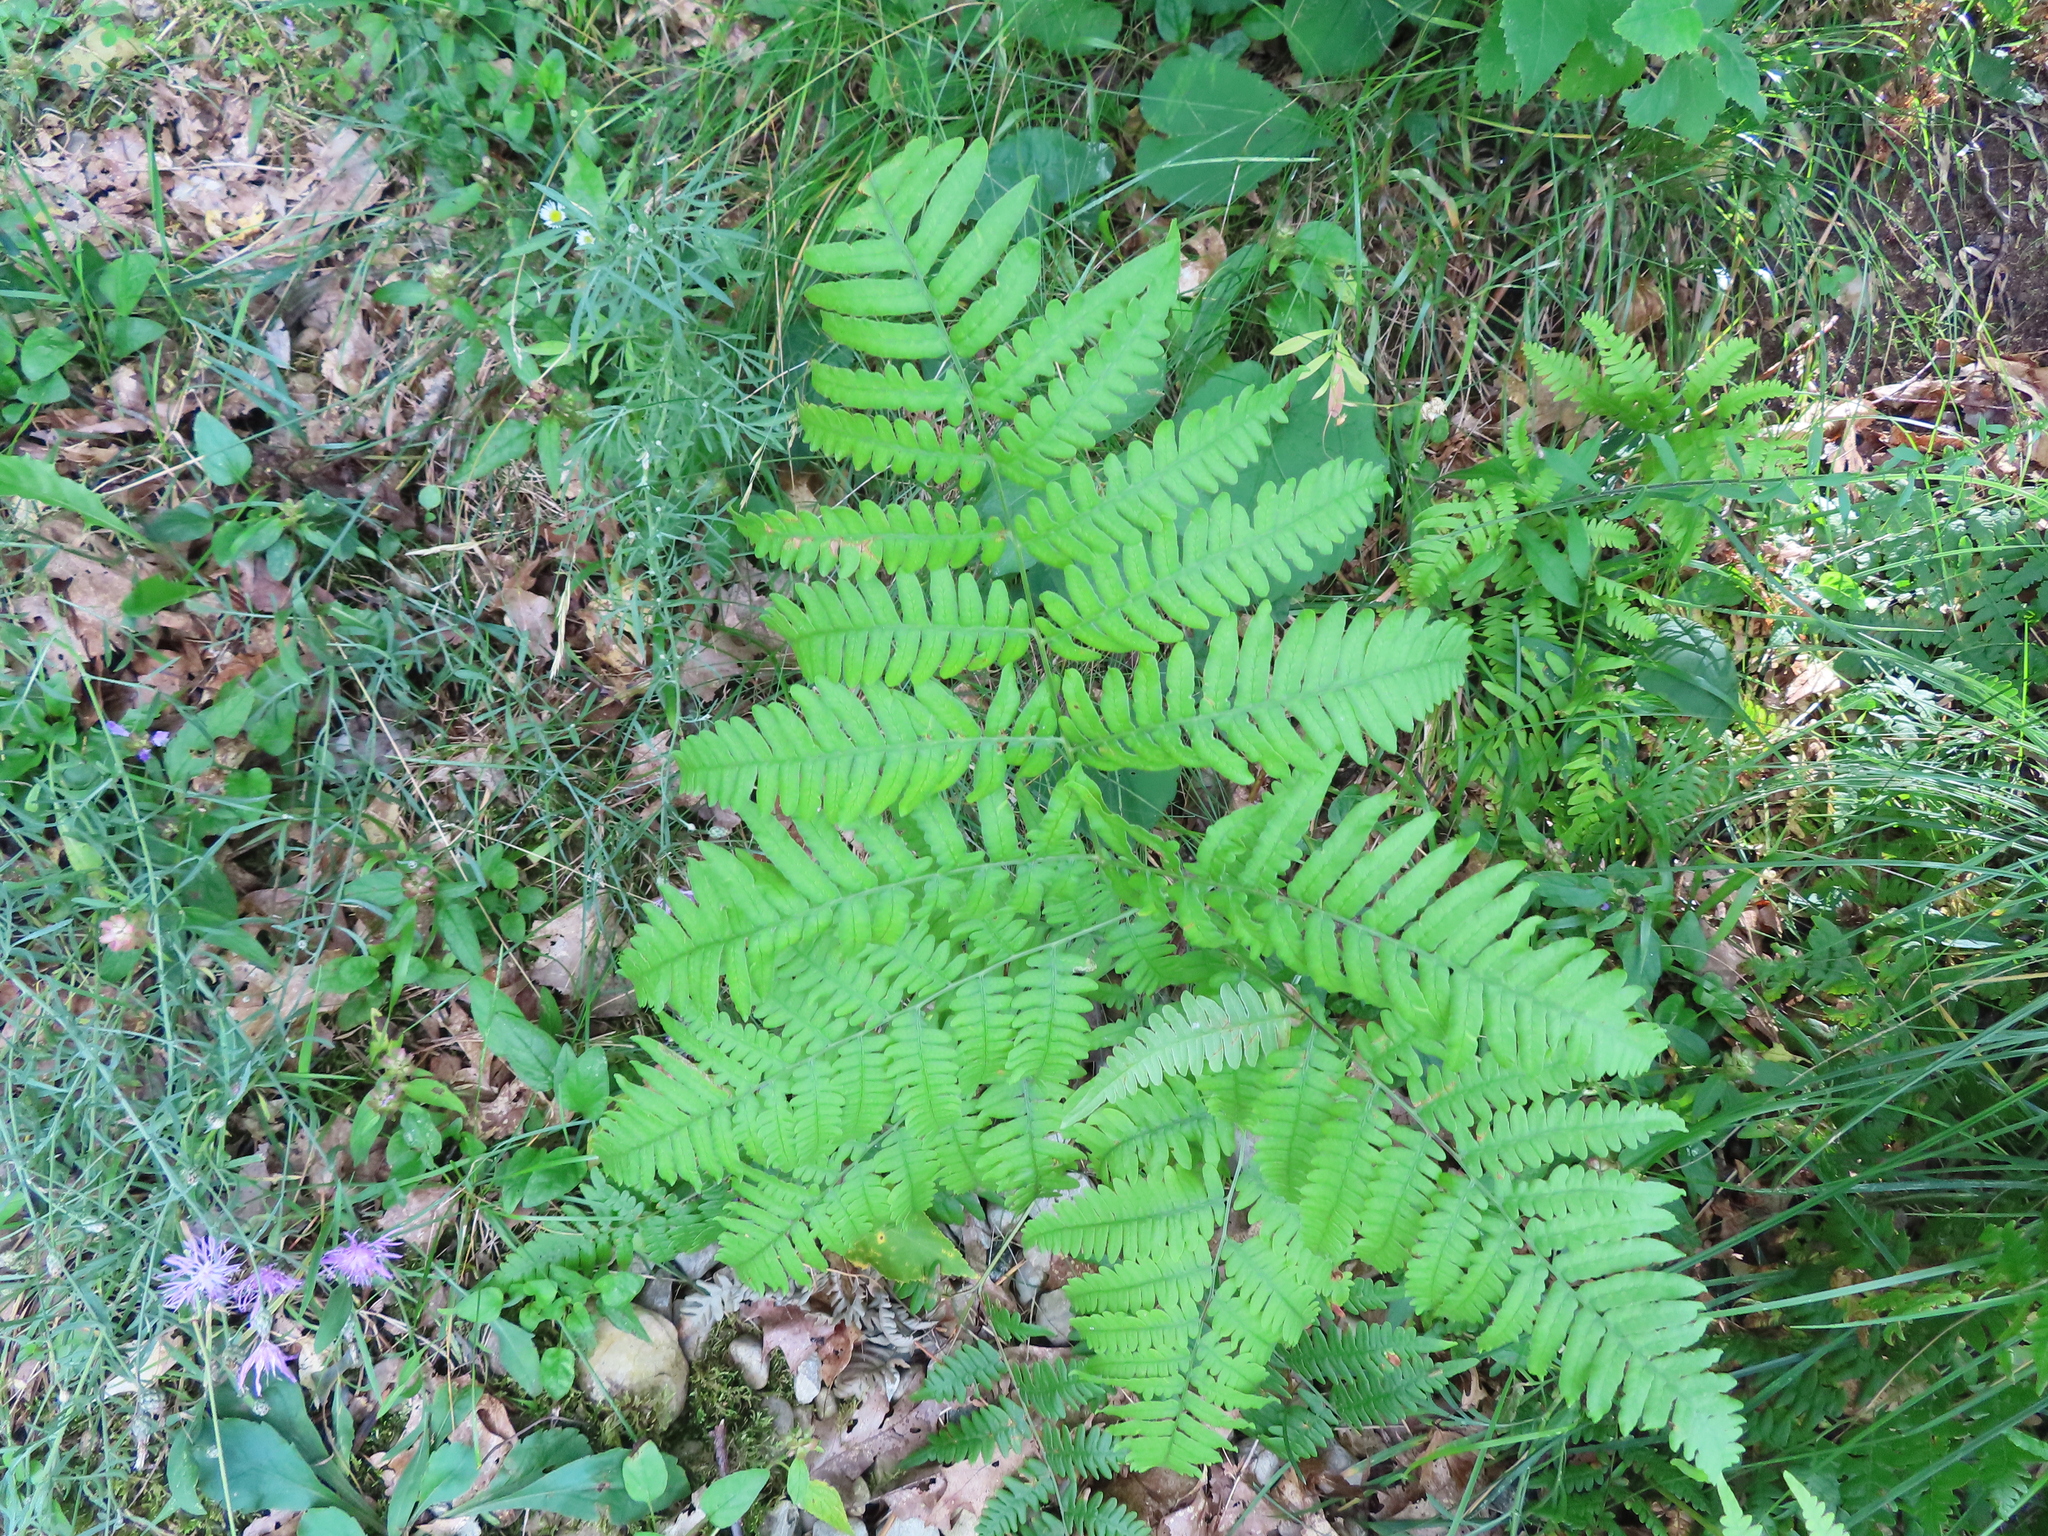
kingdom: Plantae
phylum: Tracheophyta
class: Polypodiopsida
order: Polypodiales
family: Dennstaedtiaceae
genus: Pteridium
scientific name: Pteridium aquilinum
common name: Bracken
